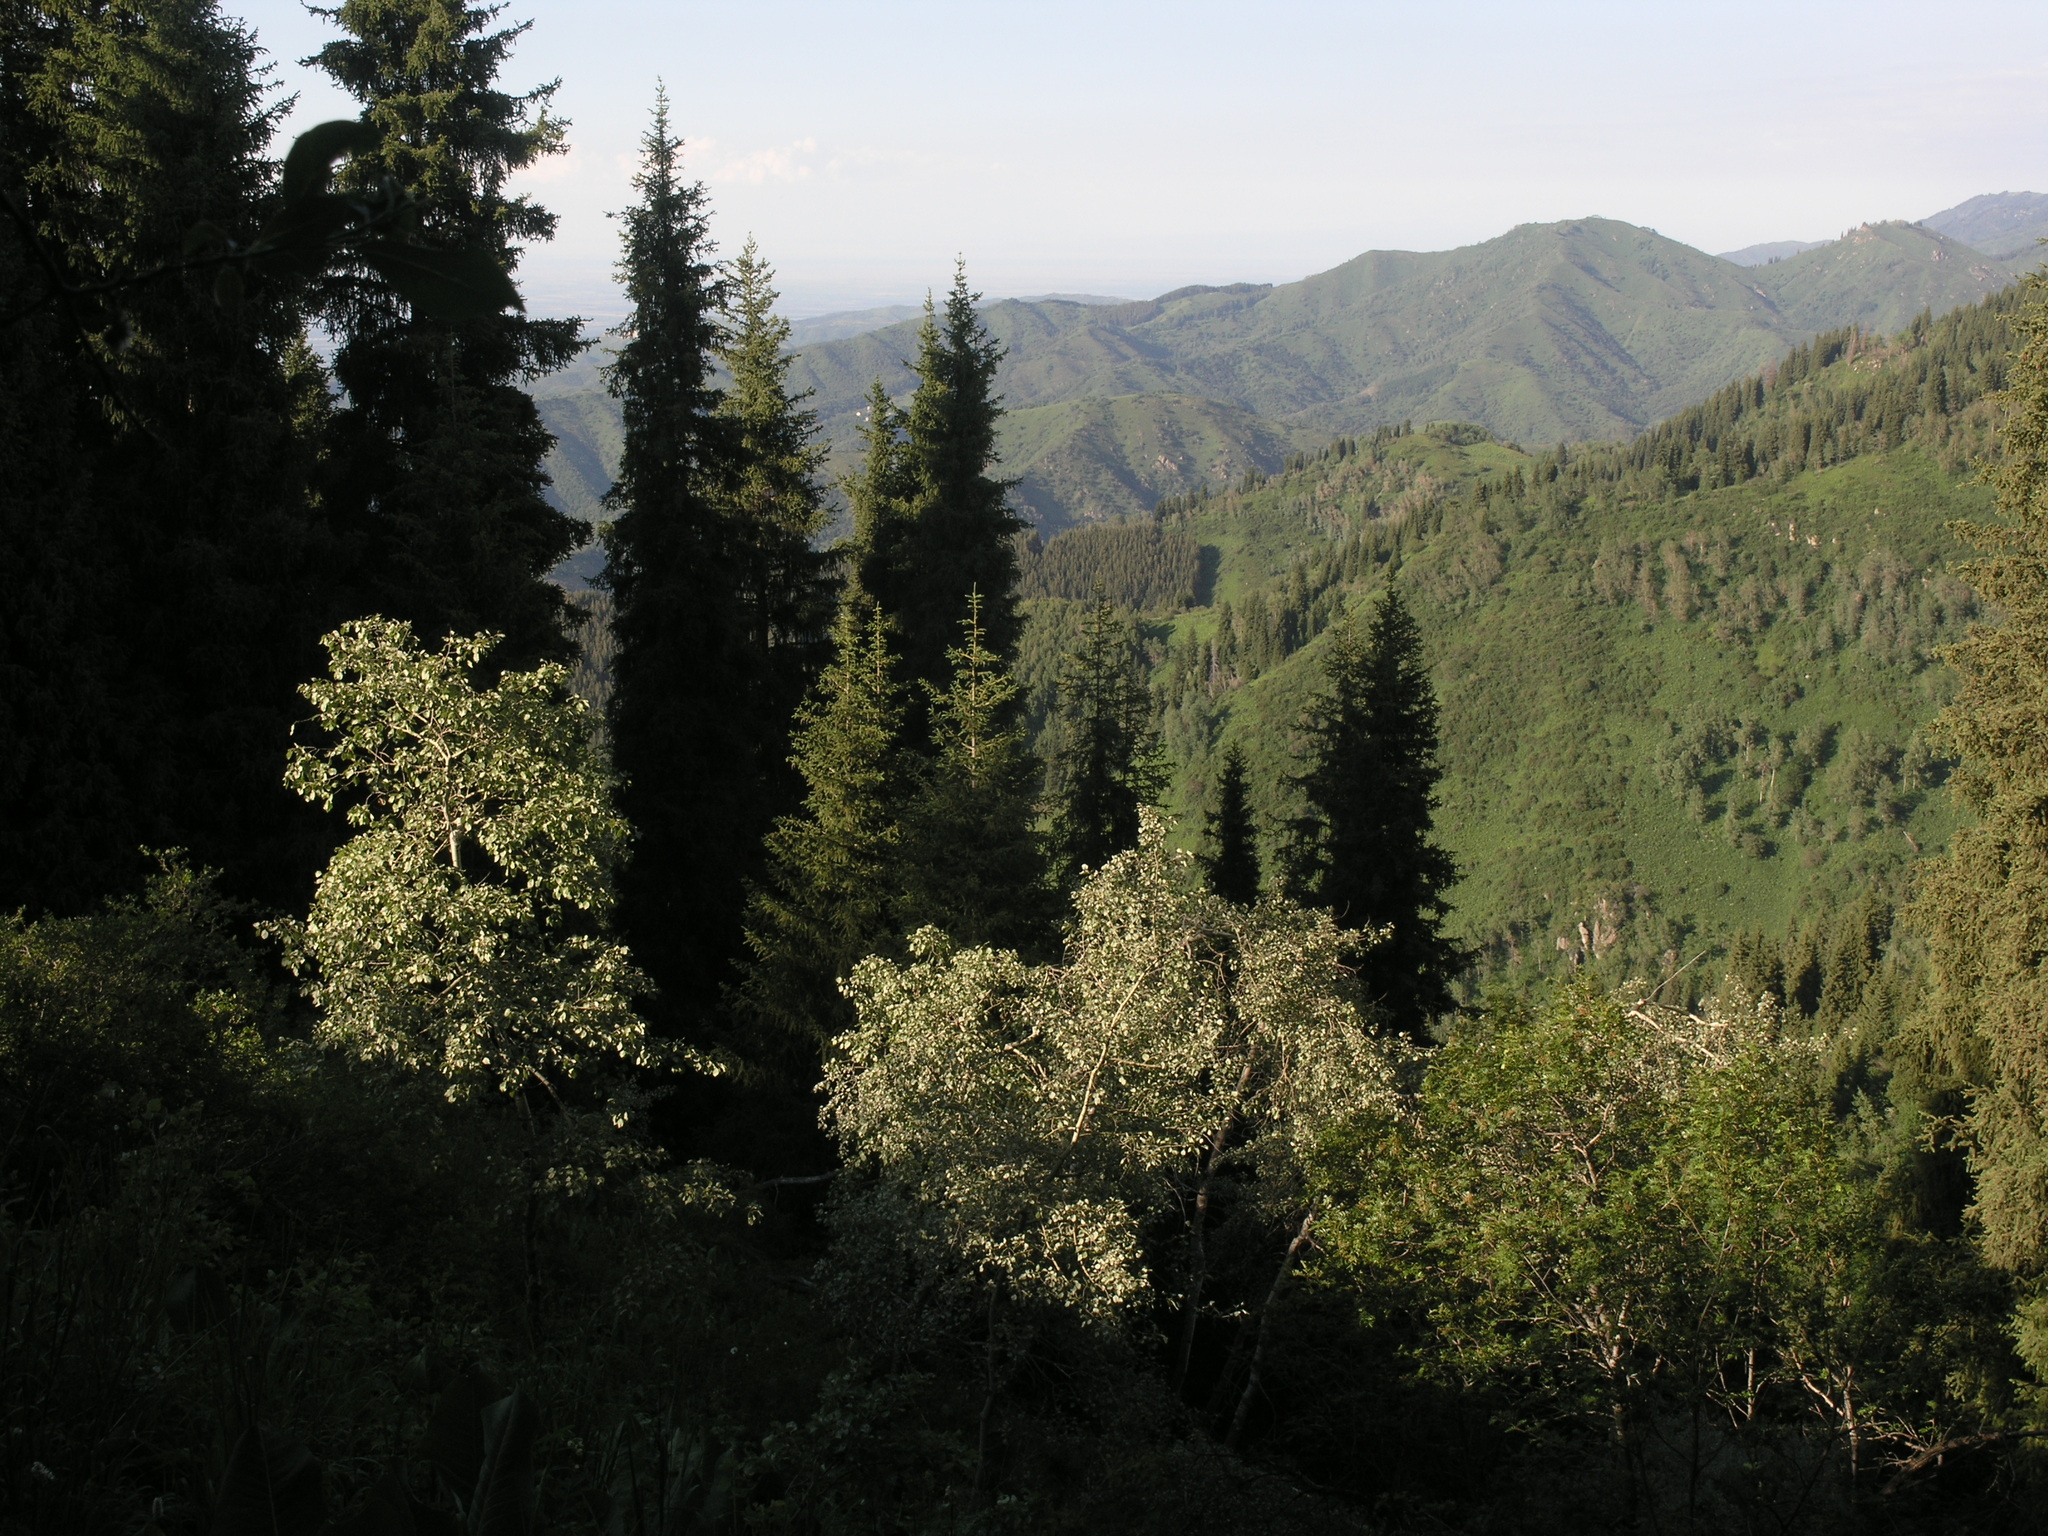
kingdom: Plantae
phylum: Tracheophyta
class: Magnoliopsida
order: Malpighiales
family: Salicaceae
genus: Populus
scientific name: Populus tremula
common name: European aspen
